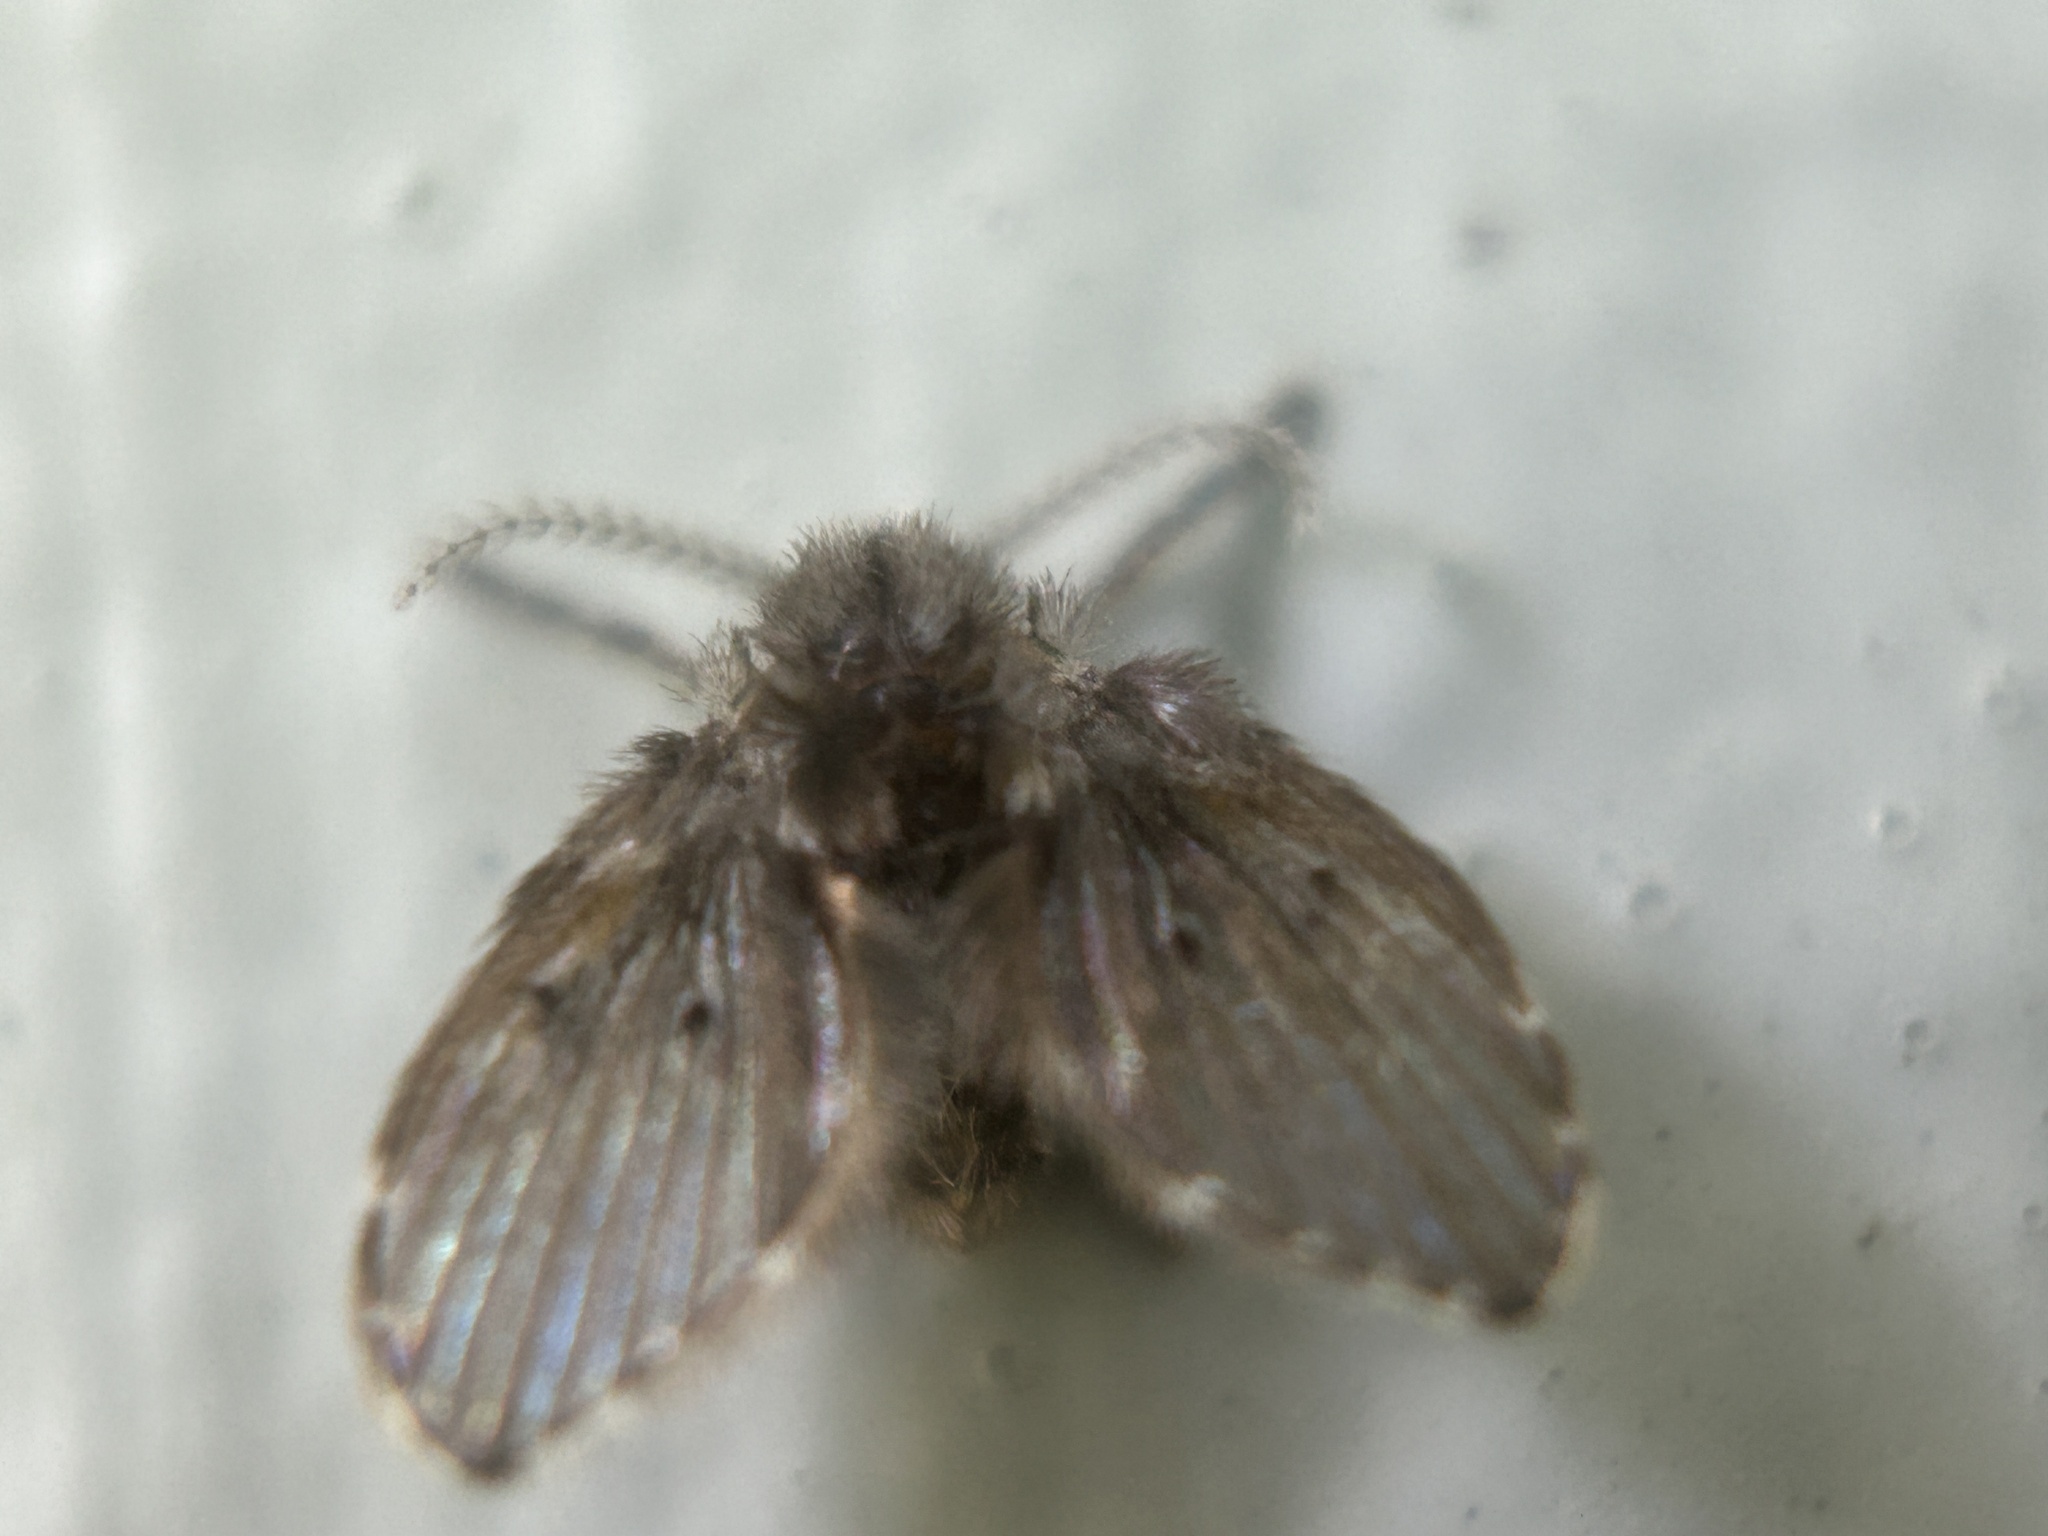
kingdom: Animalia
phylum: Arthropoda
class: Insecta
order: Diptera
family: Psychodidae
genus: Clogmia
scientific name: Clogmia albipunctatus
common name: White-spotted moth fly
